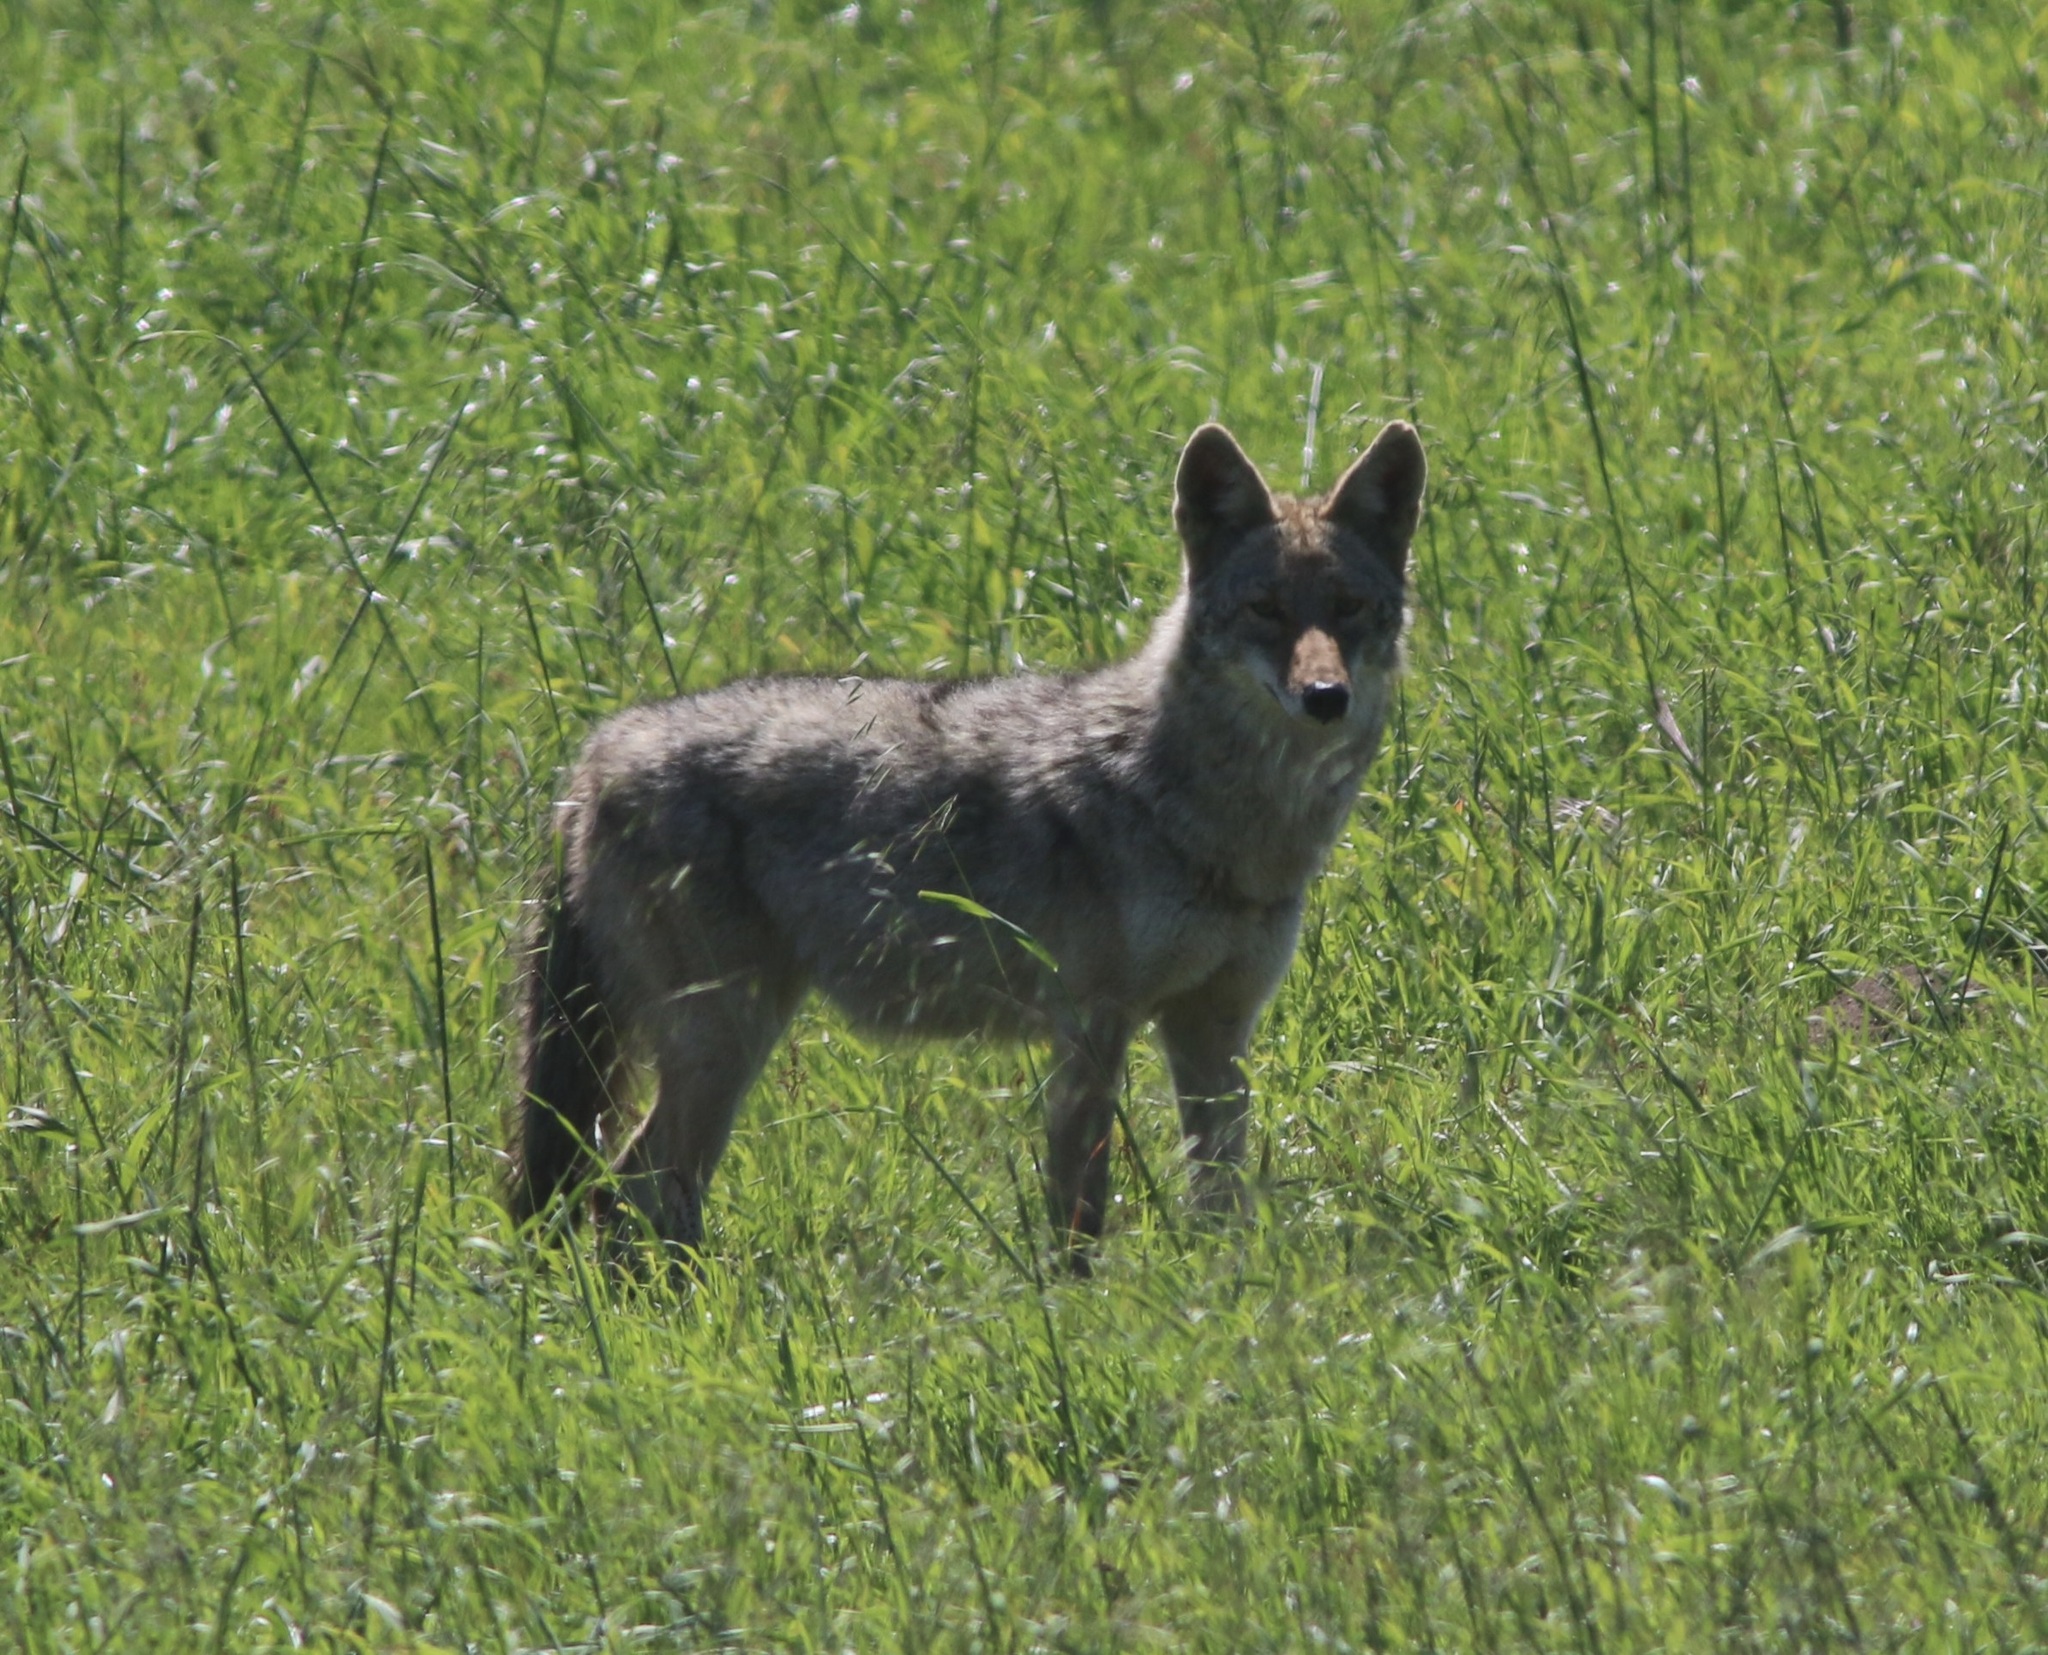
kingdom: Animalia
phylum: Chordata
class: Mammalia
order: Carnivora
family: Canidae
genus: Canis
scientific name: Canis latrans
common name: Coyote
